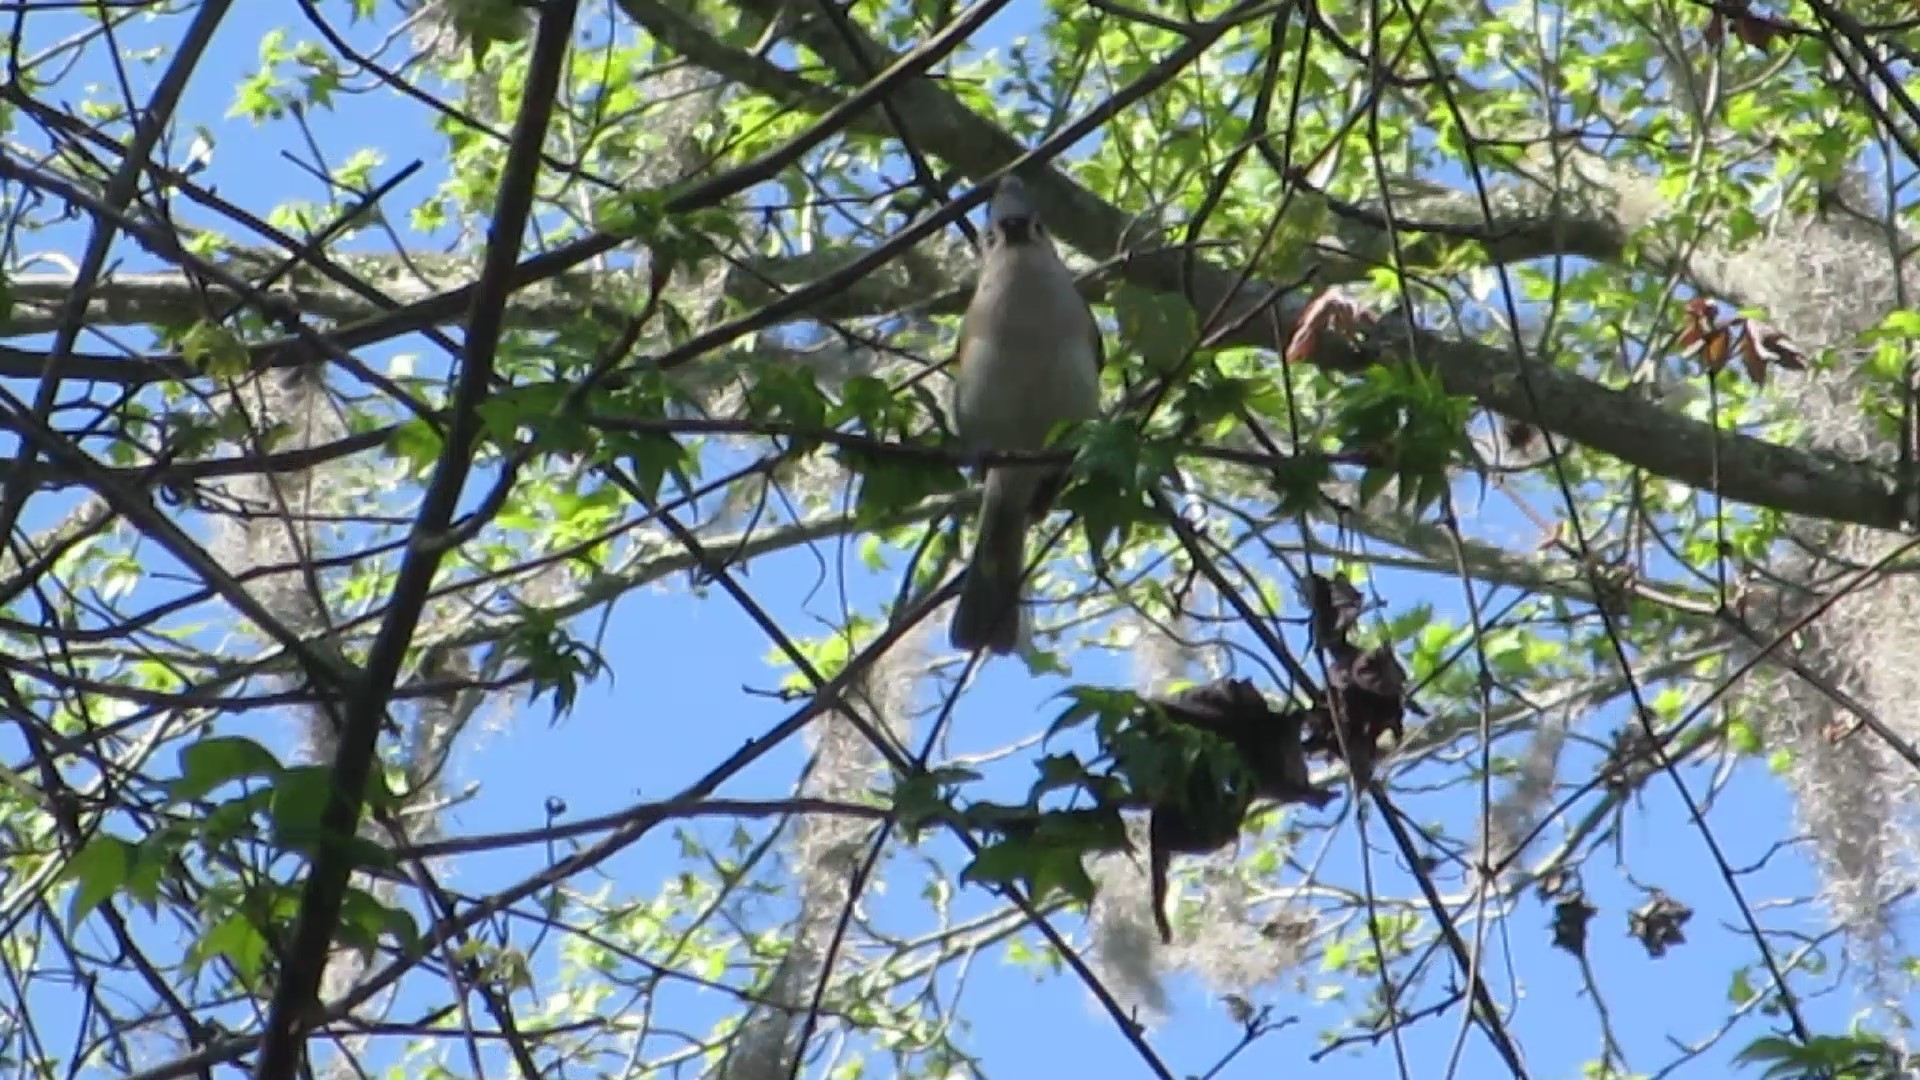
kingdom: Animalia
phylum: Chordata
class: Aves
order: Passeriformes
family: Paridae
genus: Baeolophus
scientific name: Baeolophus bicolor
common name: Tufted titmouse
